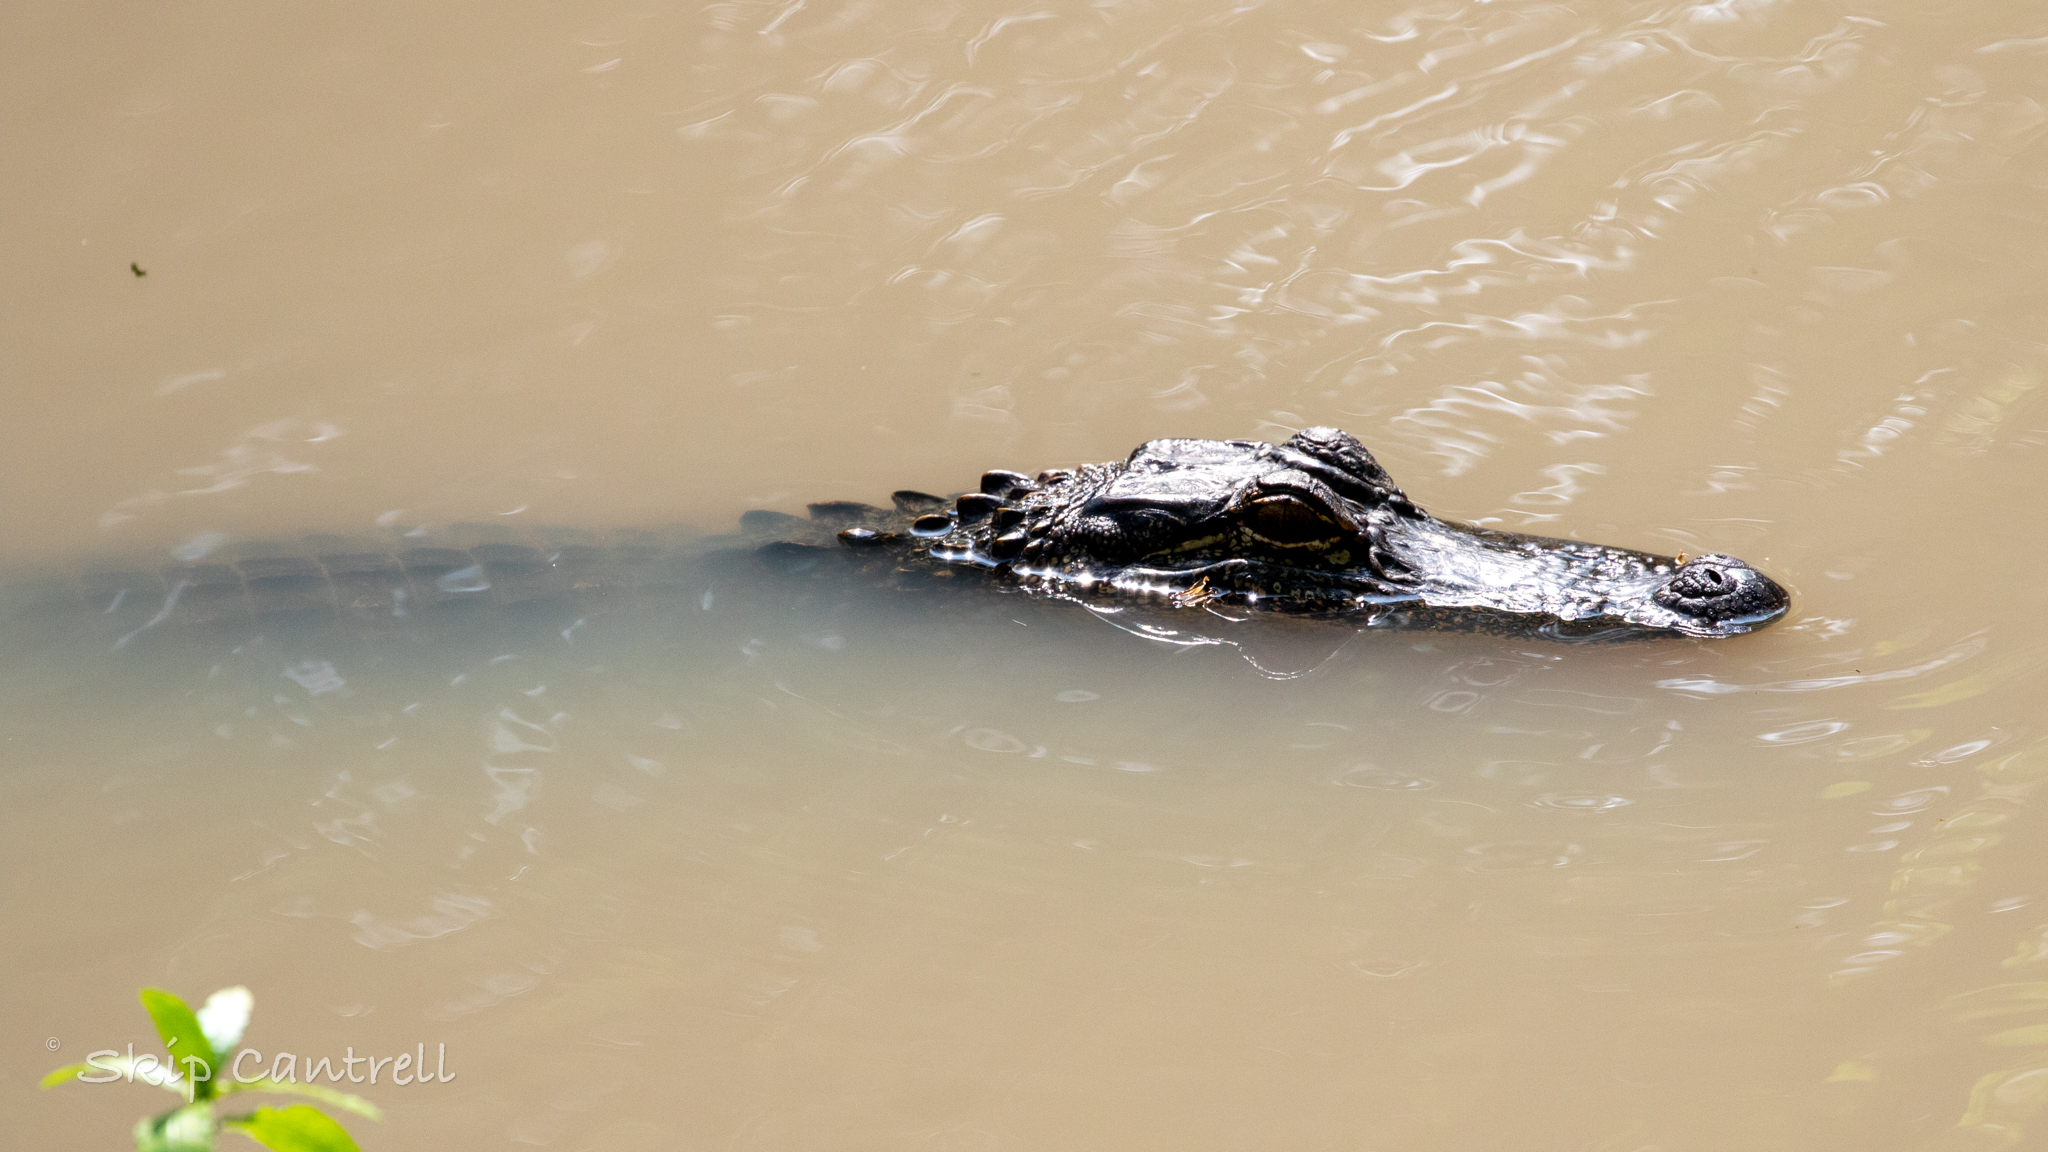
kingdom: Animalia
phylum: Chordata
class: Crocodylia
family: Alligatoridae
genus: Alligator
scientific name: Alligator mississippiensis
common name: American alligator
